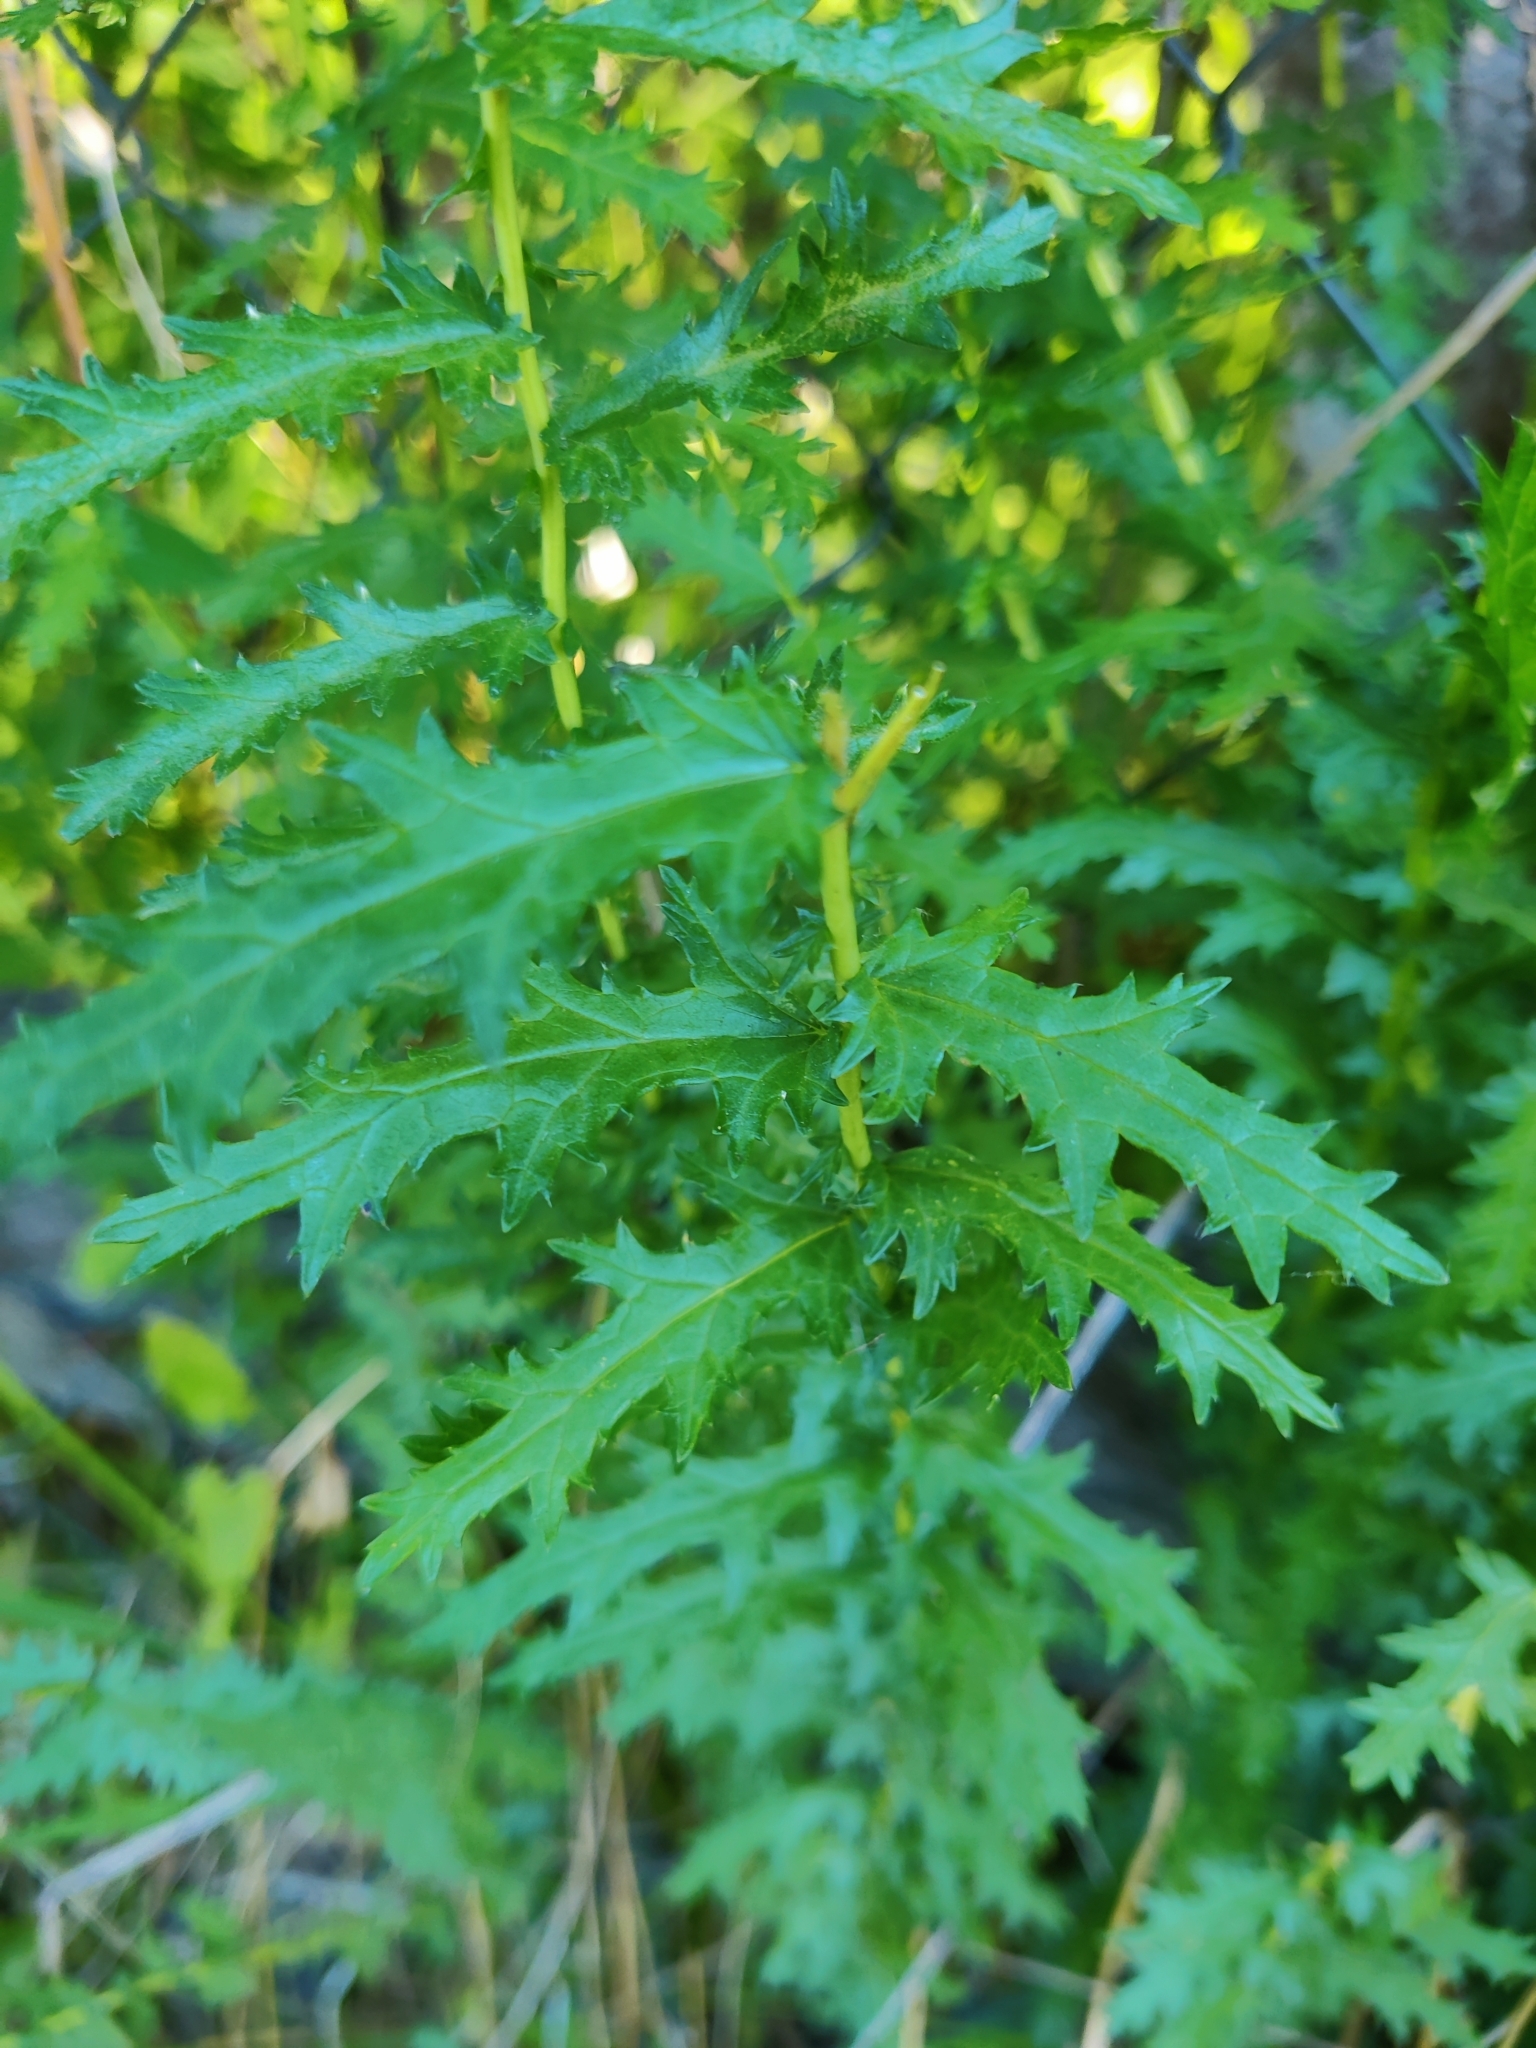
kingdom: Plantae
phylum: Tracheophyta
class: Magnoliopsida
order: Rosales
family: Rosaceae
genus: Filipendula
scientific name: Filipendula vulgaris
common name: Dropwort
